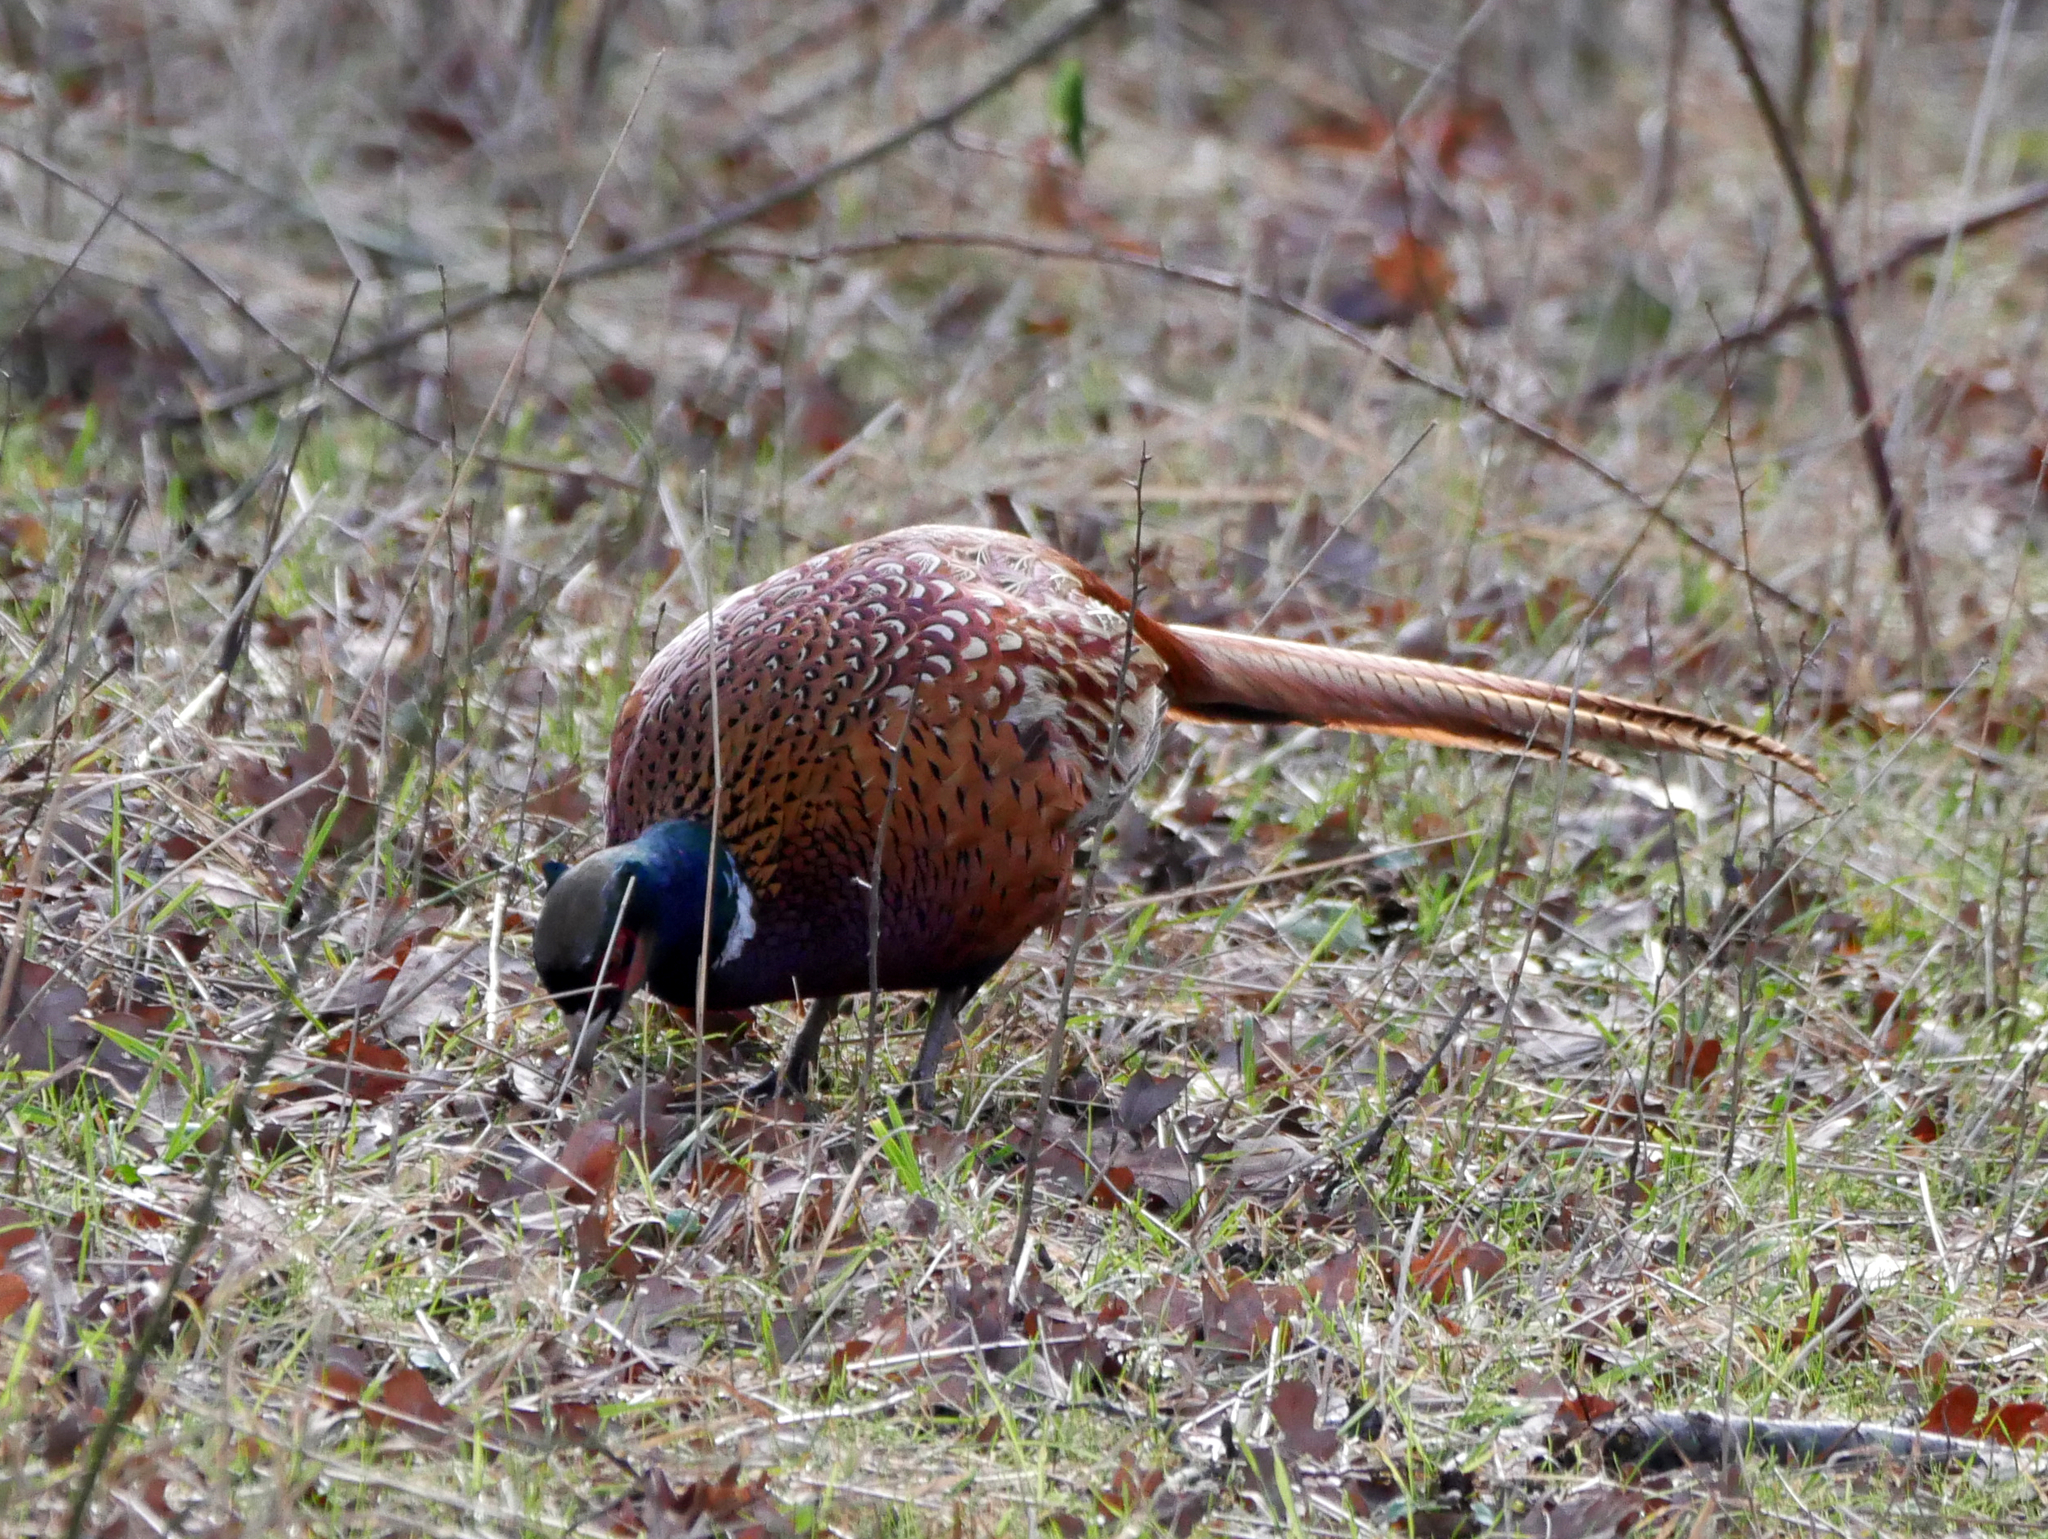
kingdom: Animalia
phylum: Chordata
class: Aves
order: Galliformes
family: Phasianidae
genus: Phasianus
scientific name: Phasianus colchicus
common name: Common pheasant
